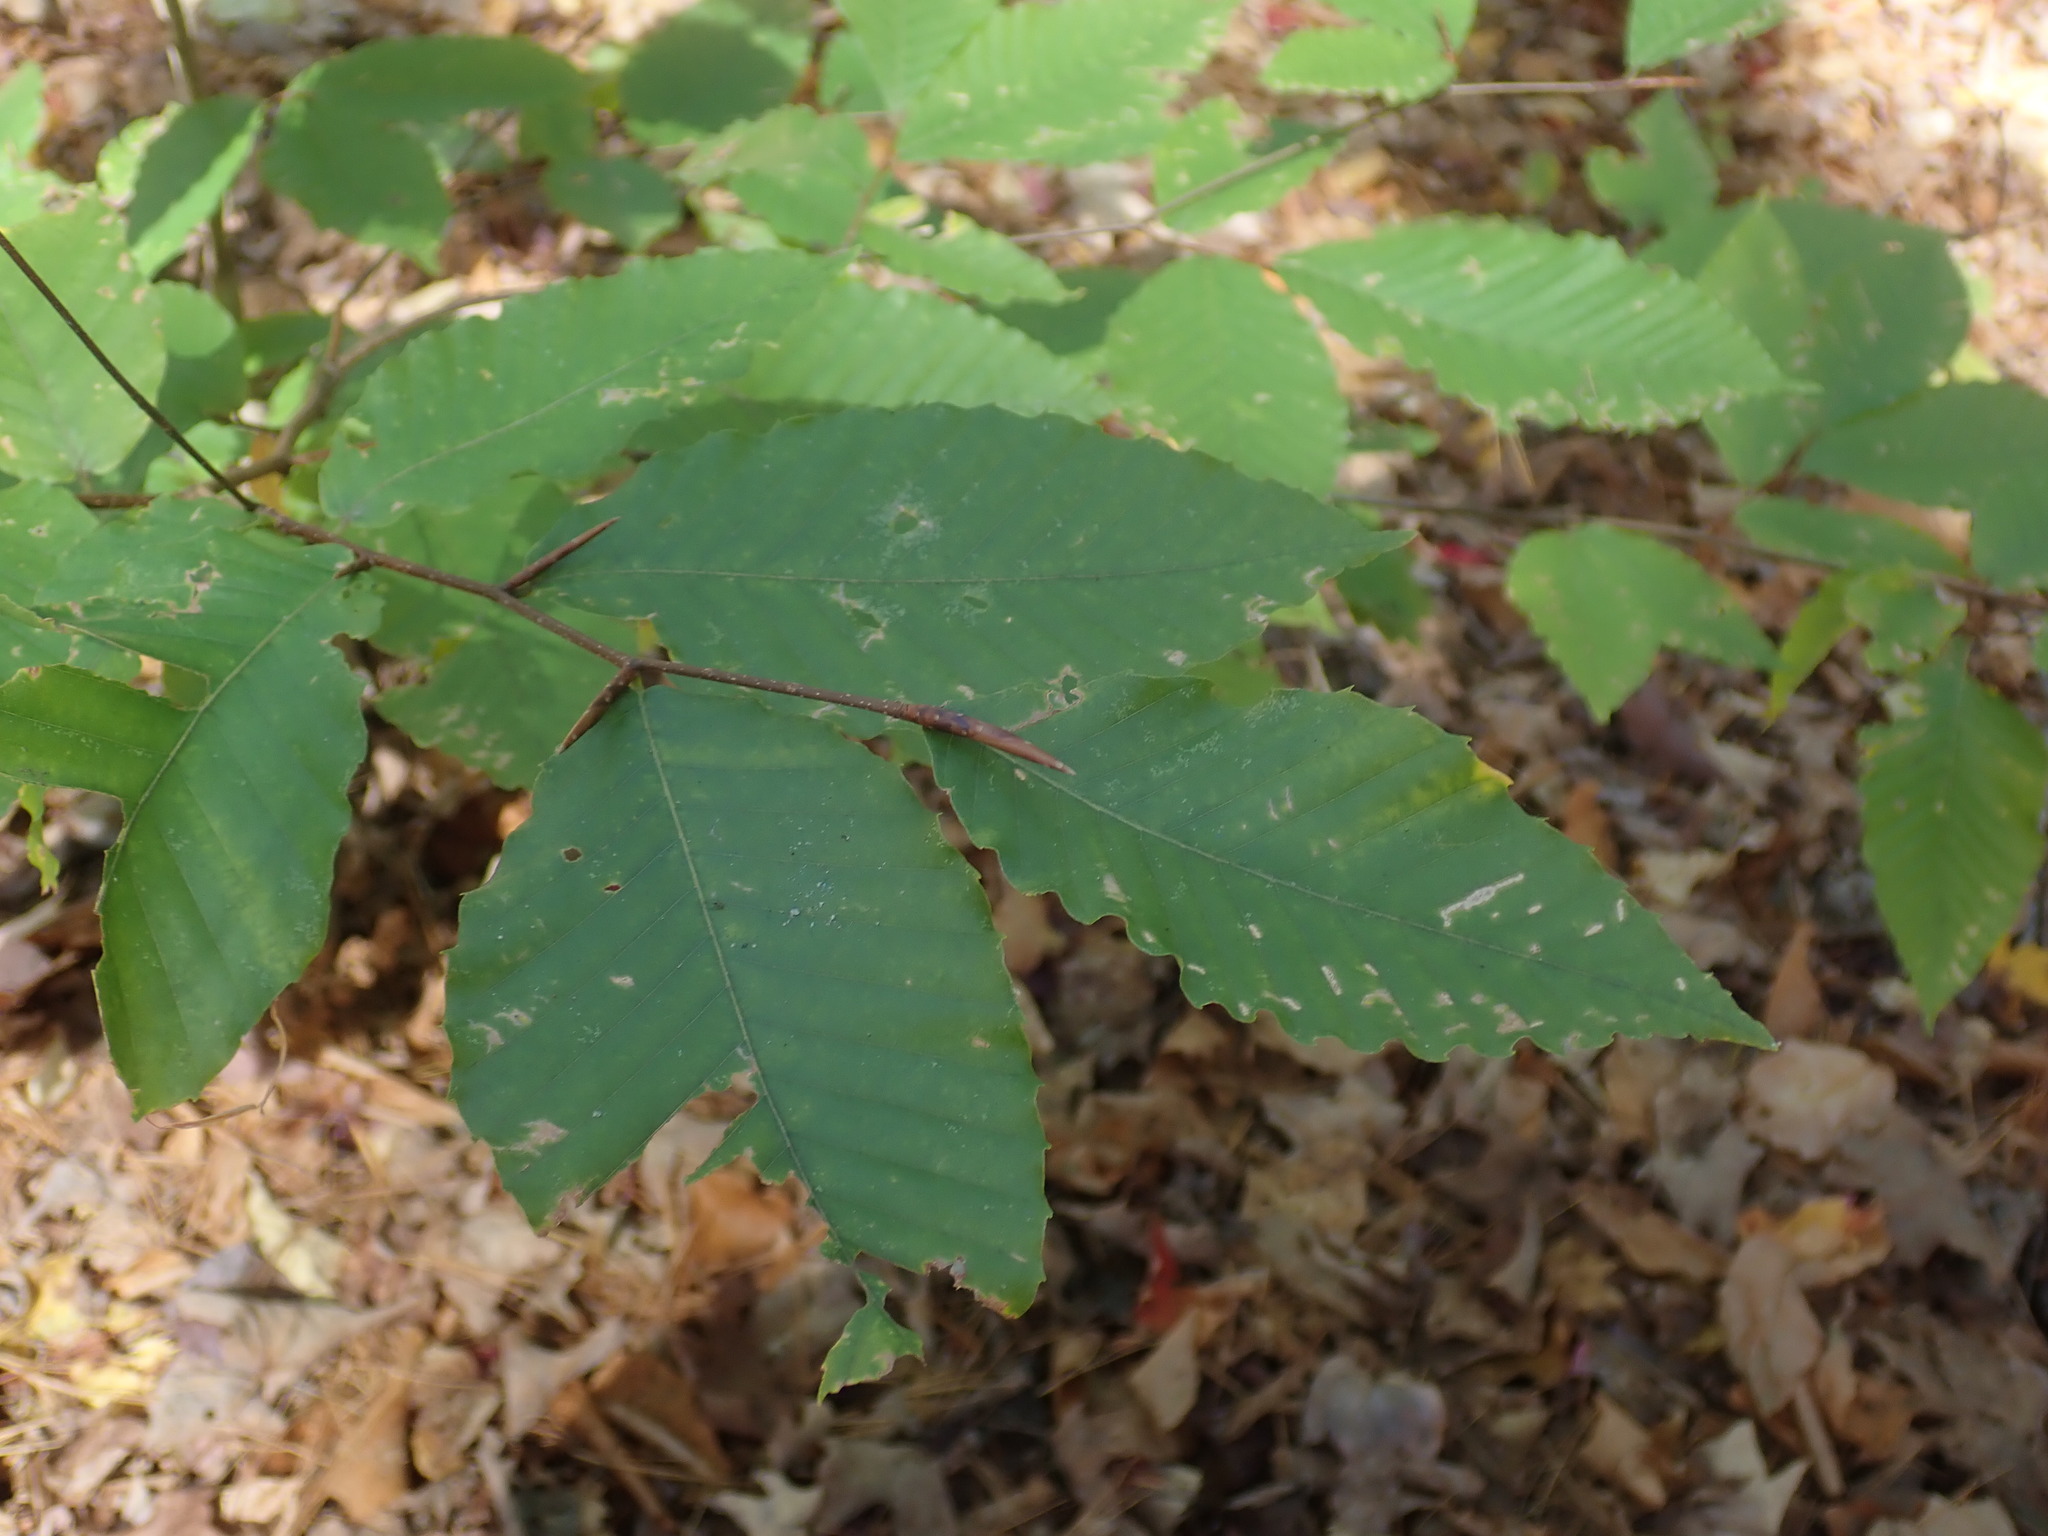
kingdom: Plantae
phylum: Tracheophyta
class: Magnoliopsida
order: Fagales
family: Fagaceae
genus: Fagus
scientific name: Fagus grandifolia
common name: American beech
